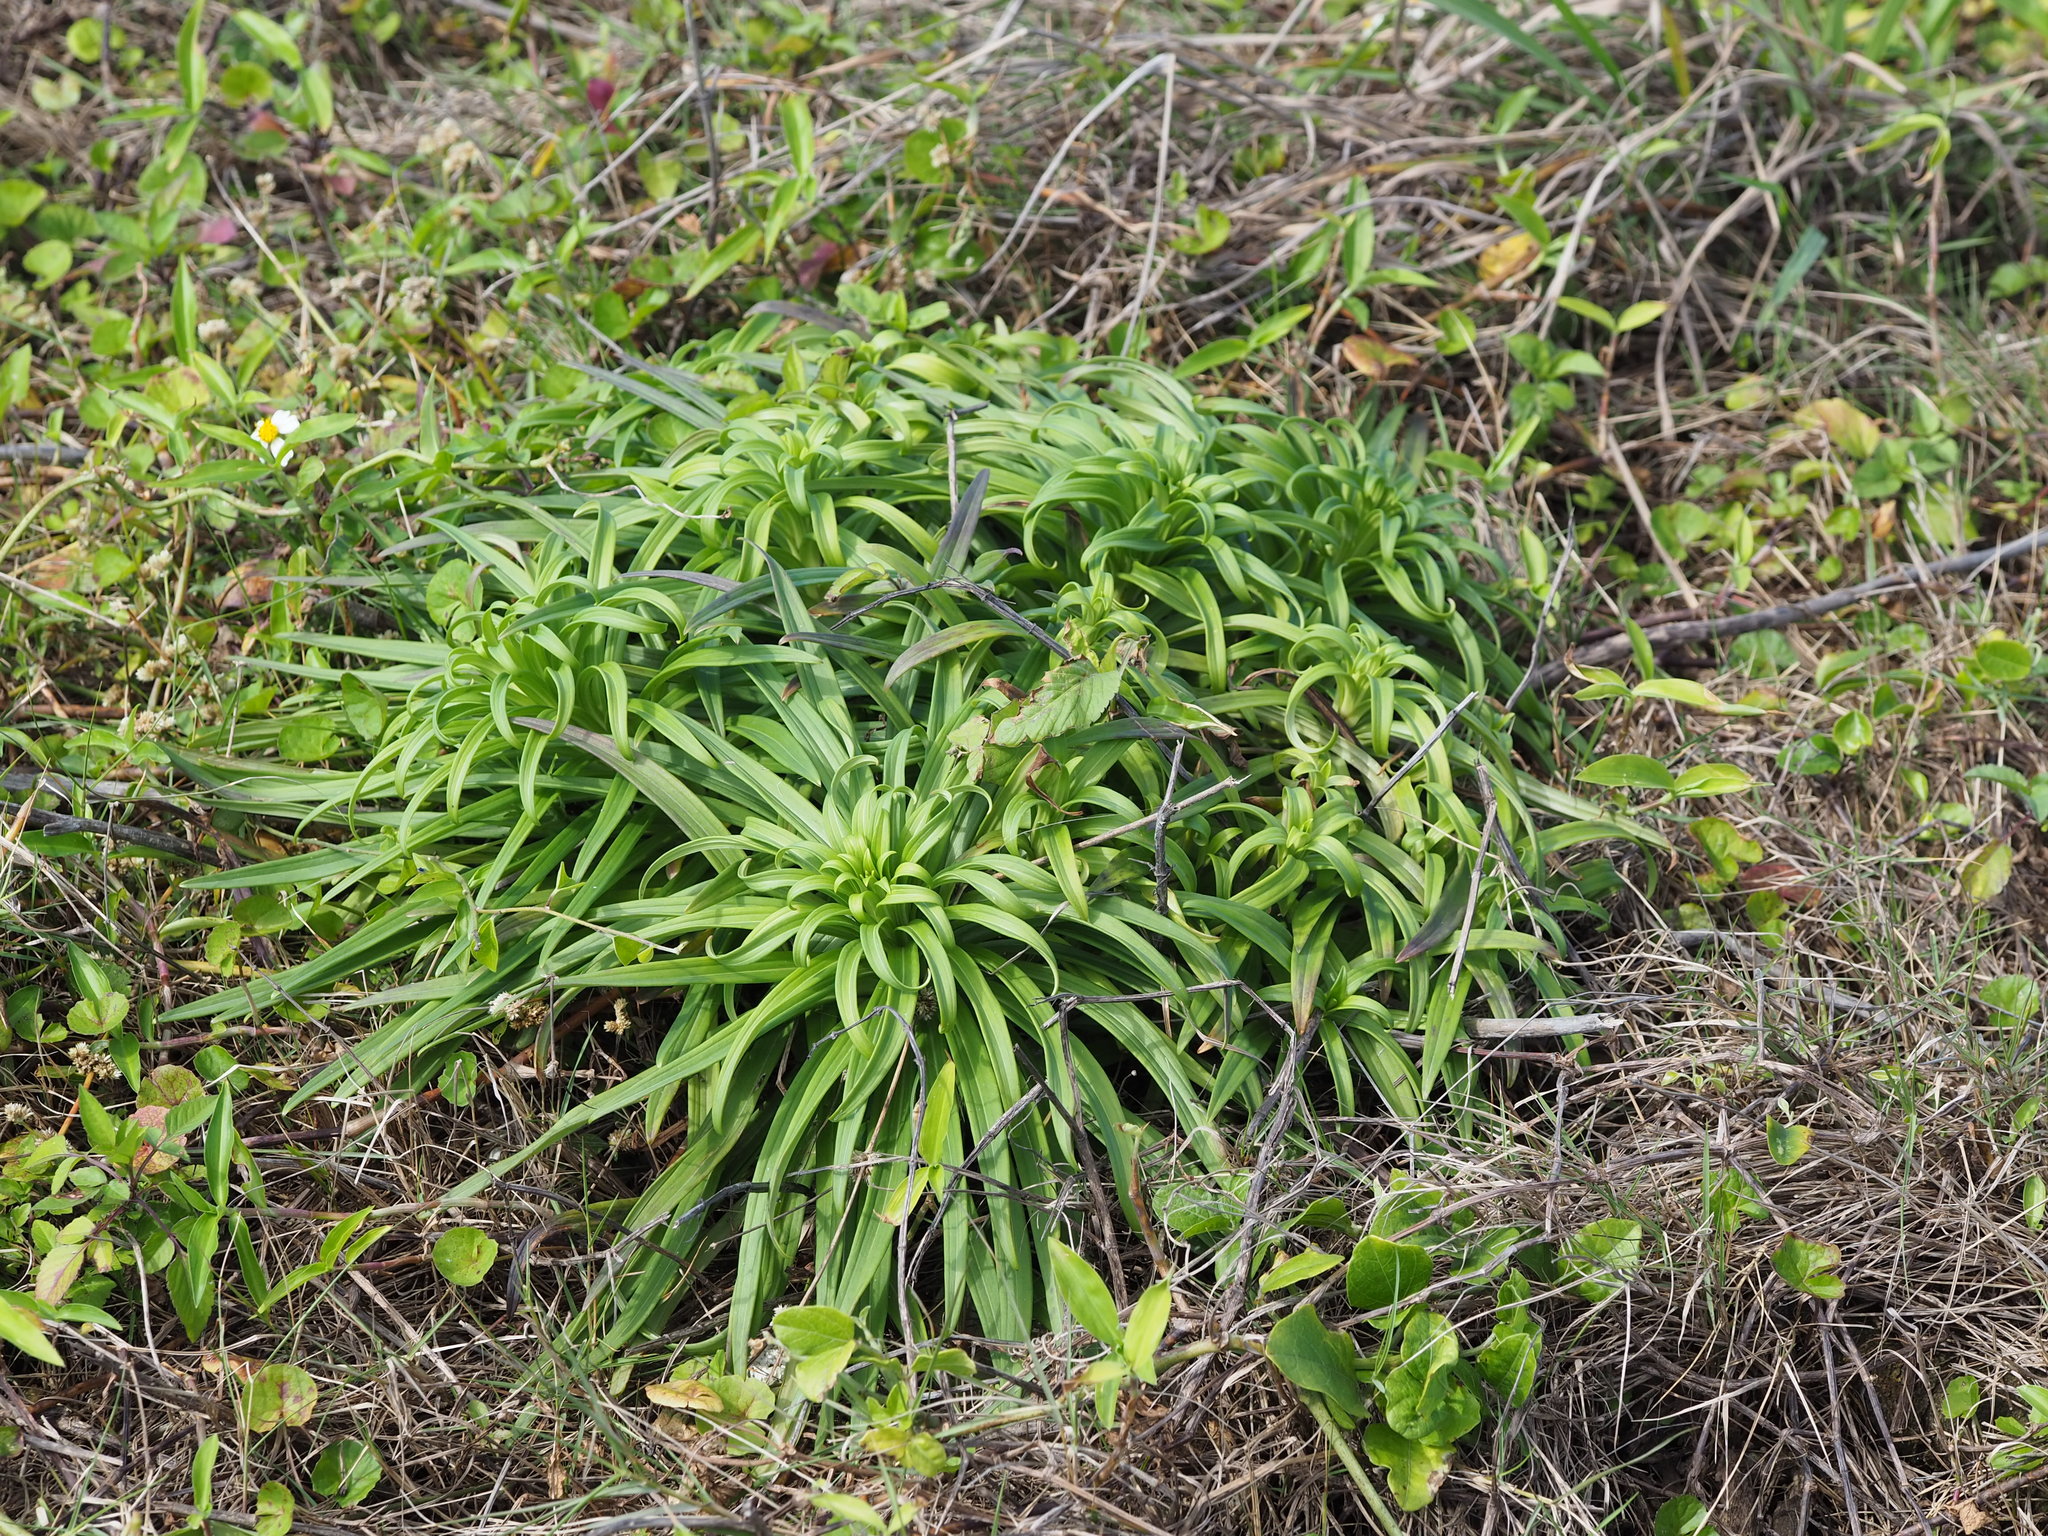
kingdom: Plantae
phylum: Tracheophyta
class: Liliopsida
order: Liliales
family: Liliaceae
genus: Lilium
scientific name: Lilium longiflorum
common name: Easter lily
